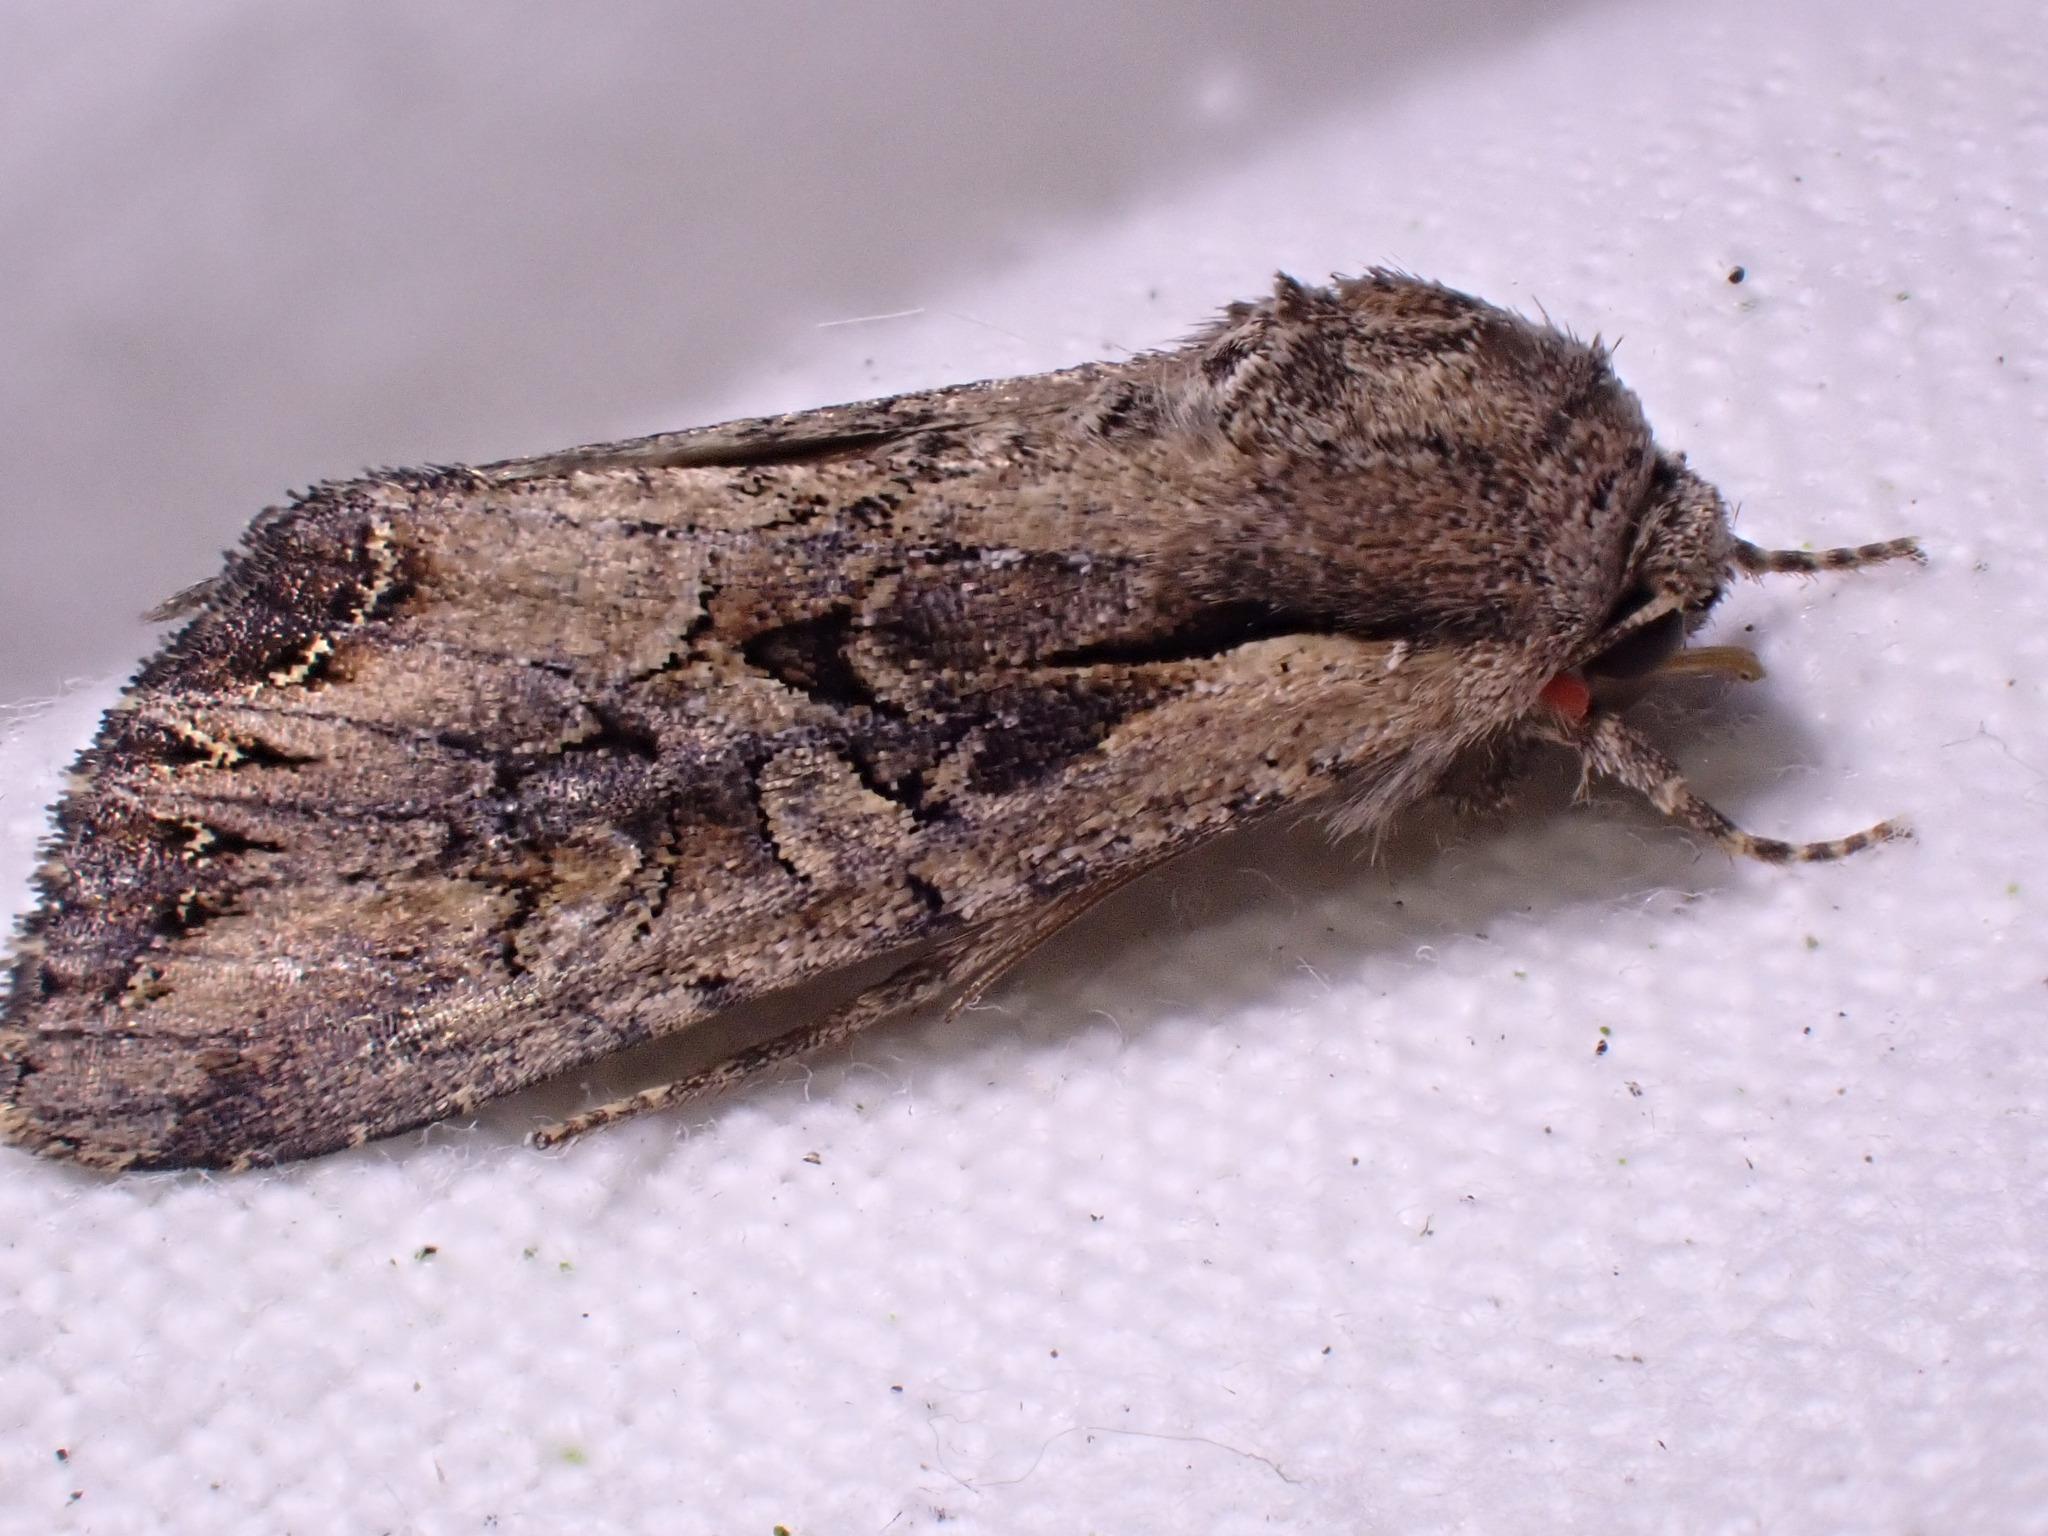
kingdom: Animalia
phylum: Arthropoda
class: Insecta
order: Lepidoptera
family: Noctuidae
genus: Lacanobia
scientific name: Lacanobia suasa
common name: Dog's tooth
